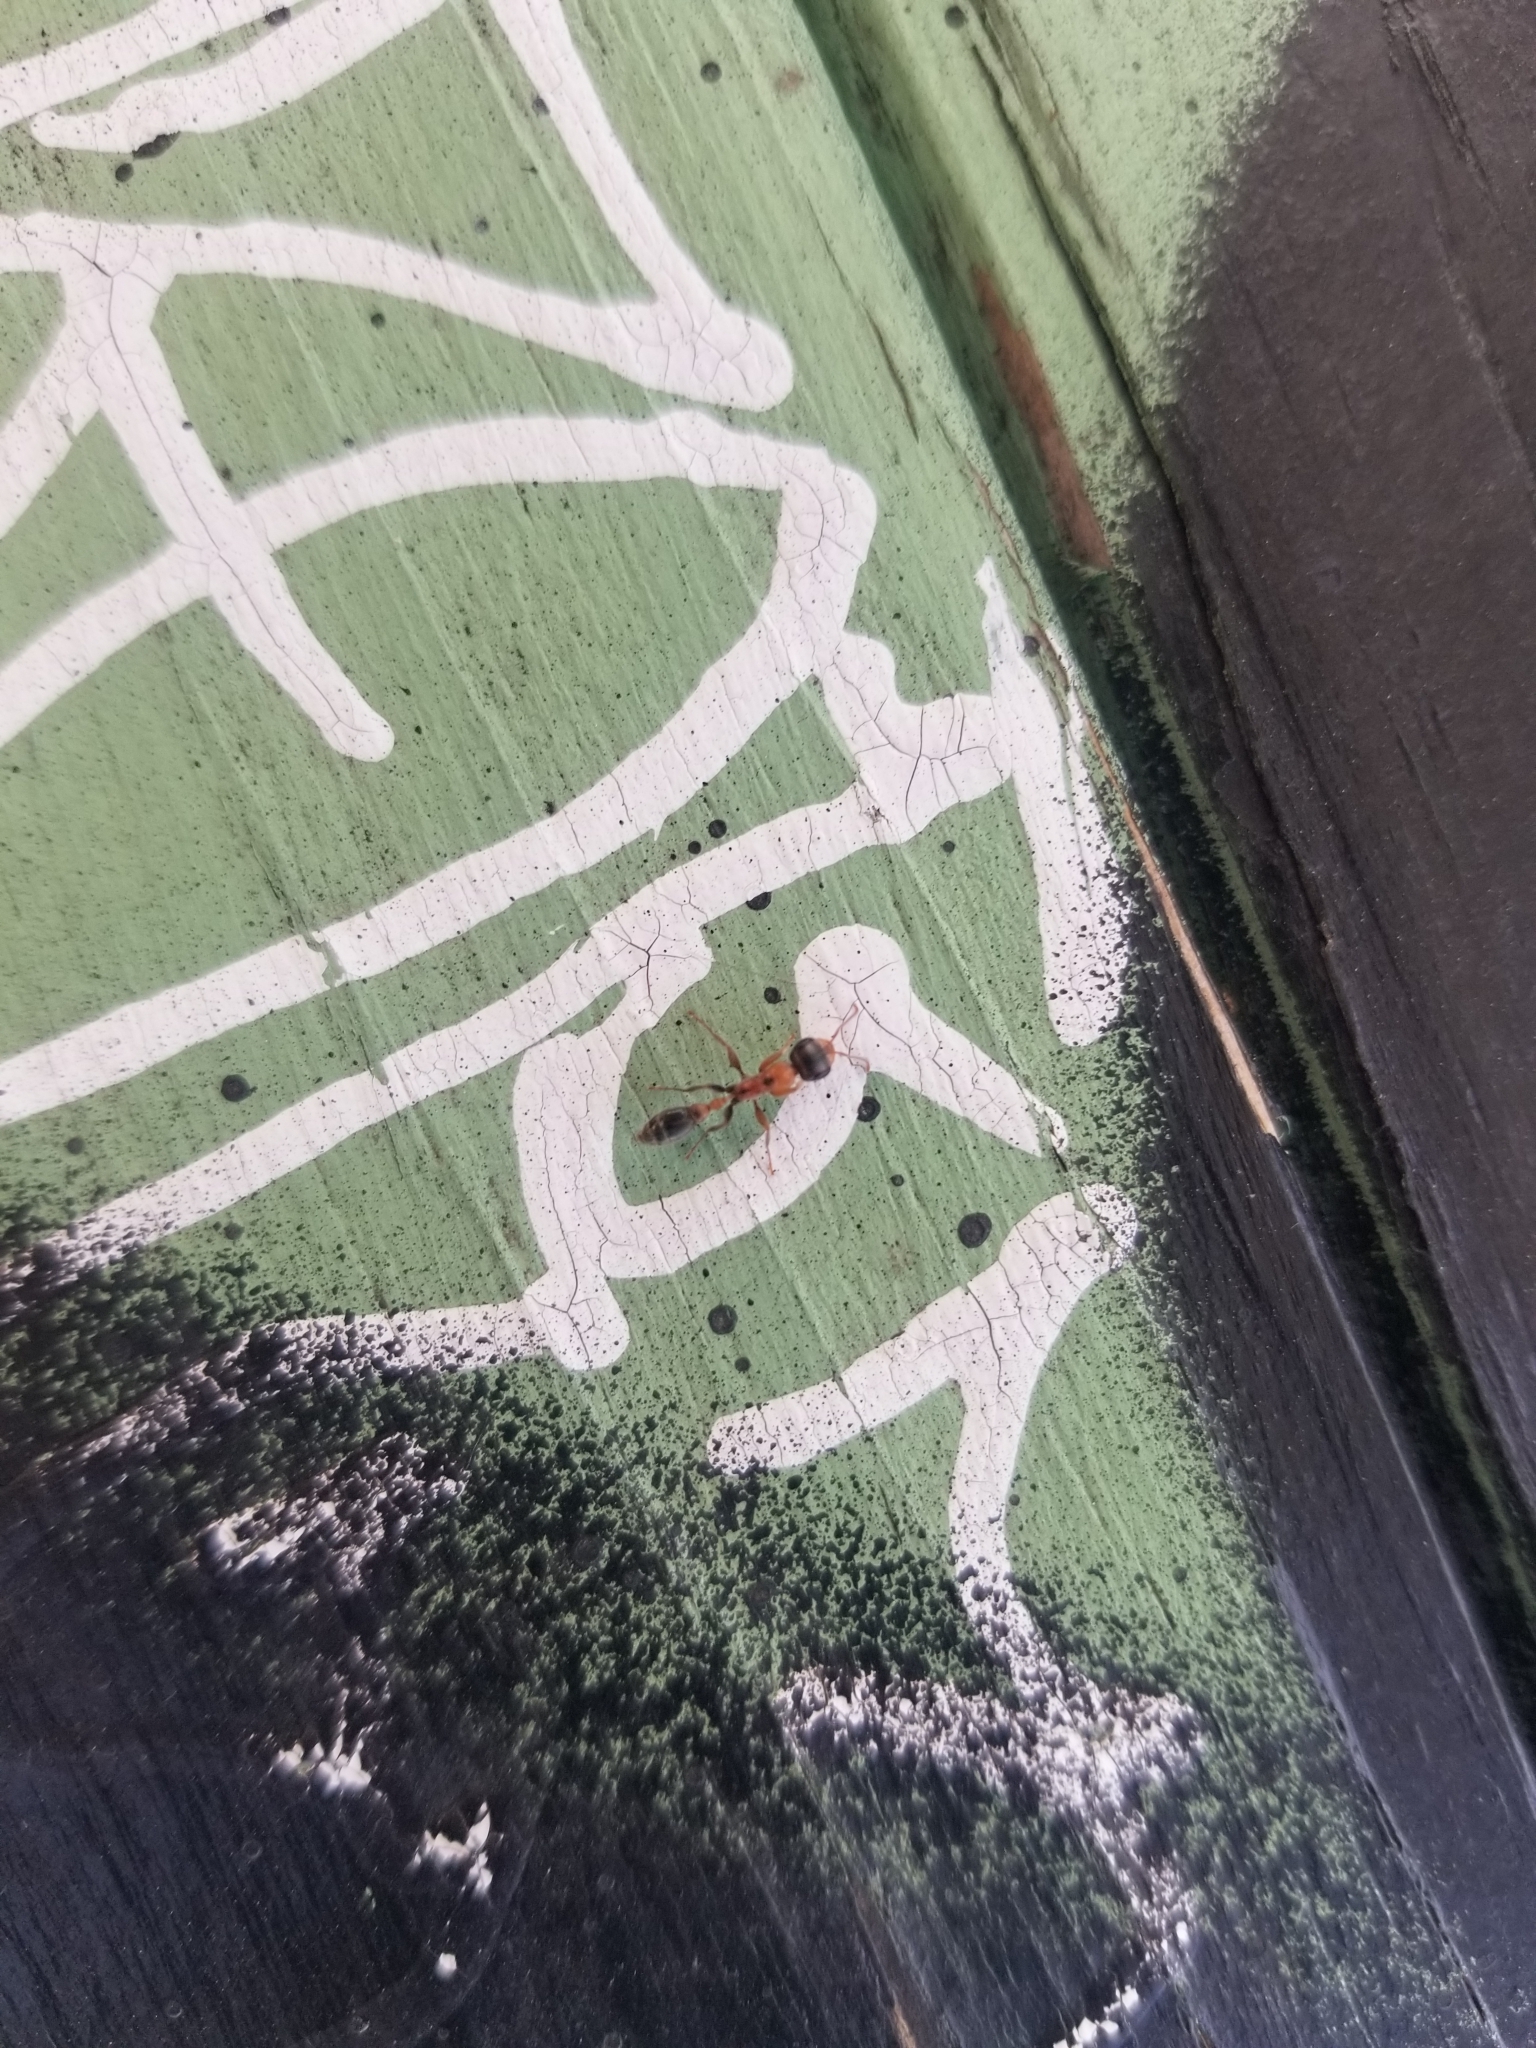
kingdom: Animalia
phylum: Arthropoda
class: Insecta
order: Hymenoptera
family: Formicidae
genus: Pseudomyrmex
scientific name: Pseudomyrmex gracilis
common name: Graceful twig ant
